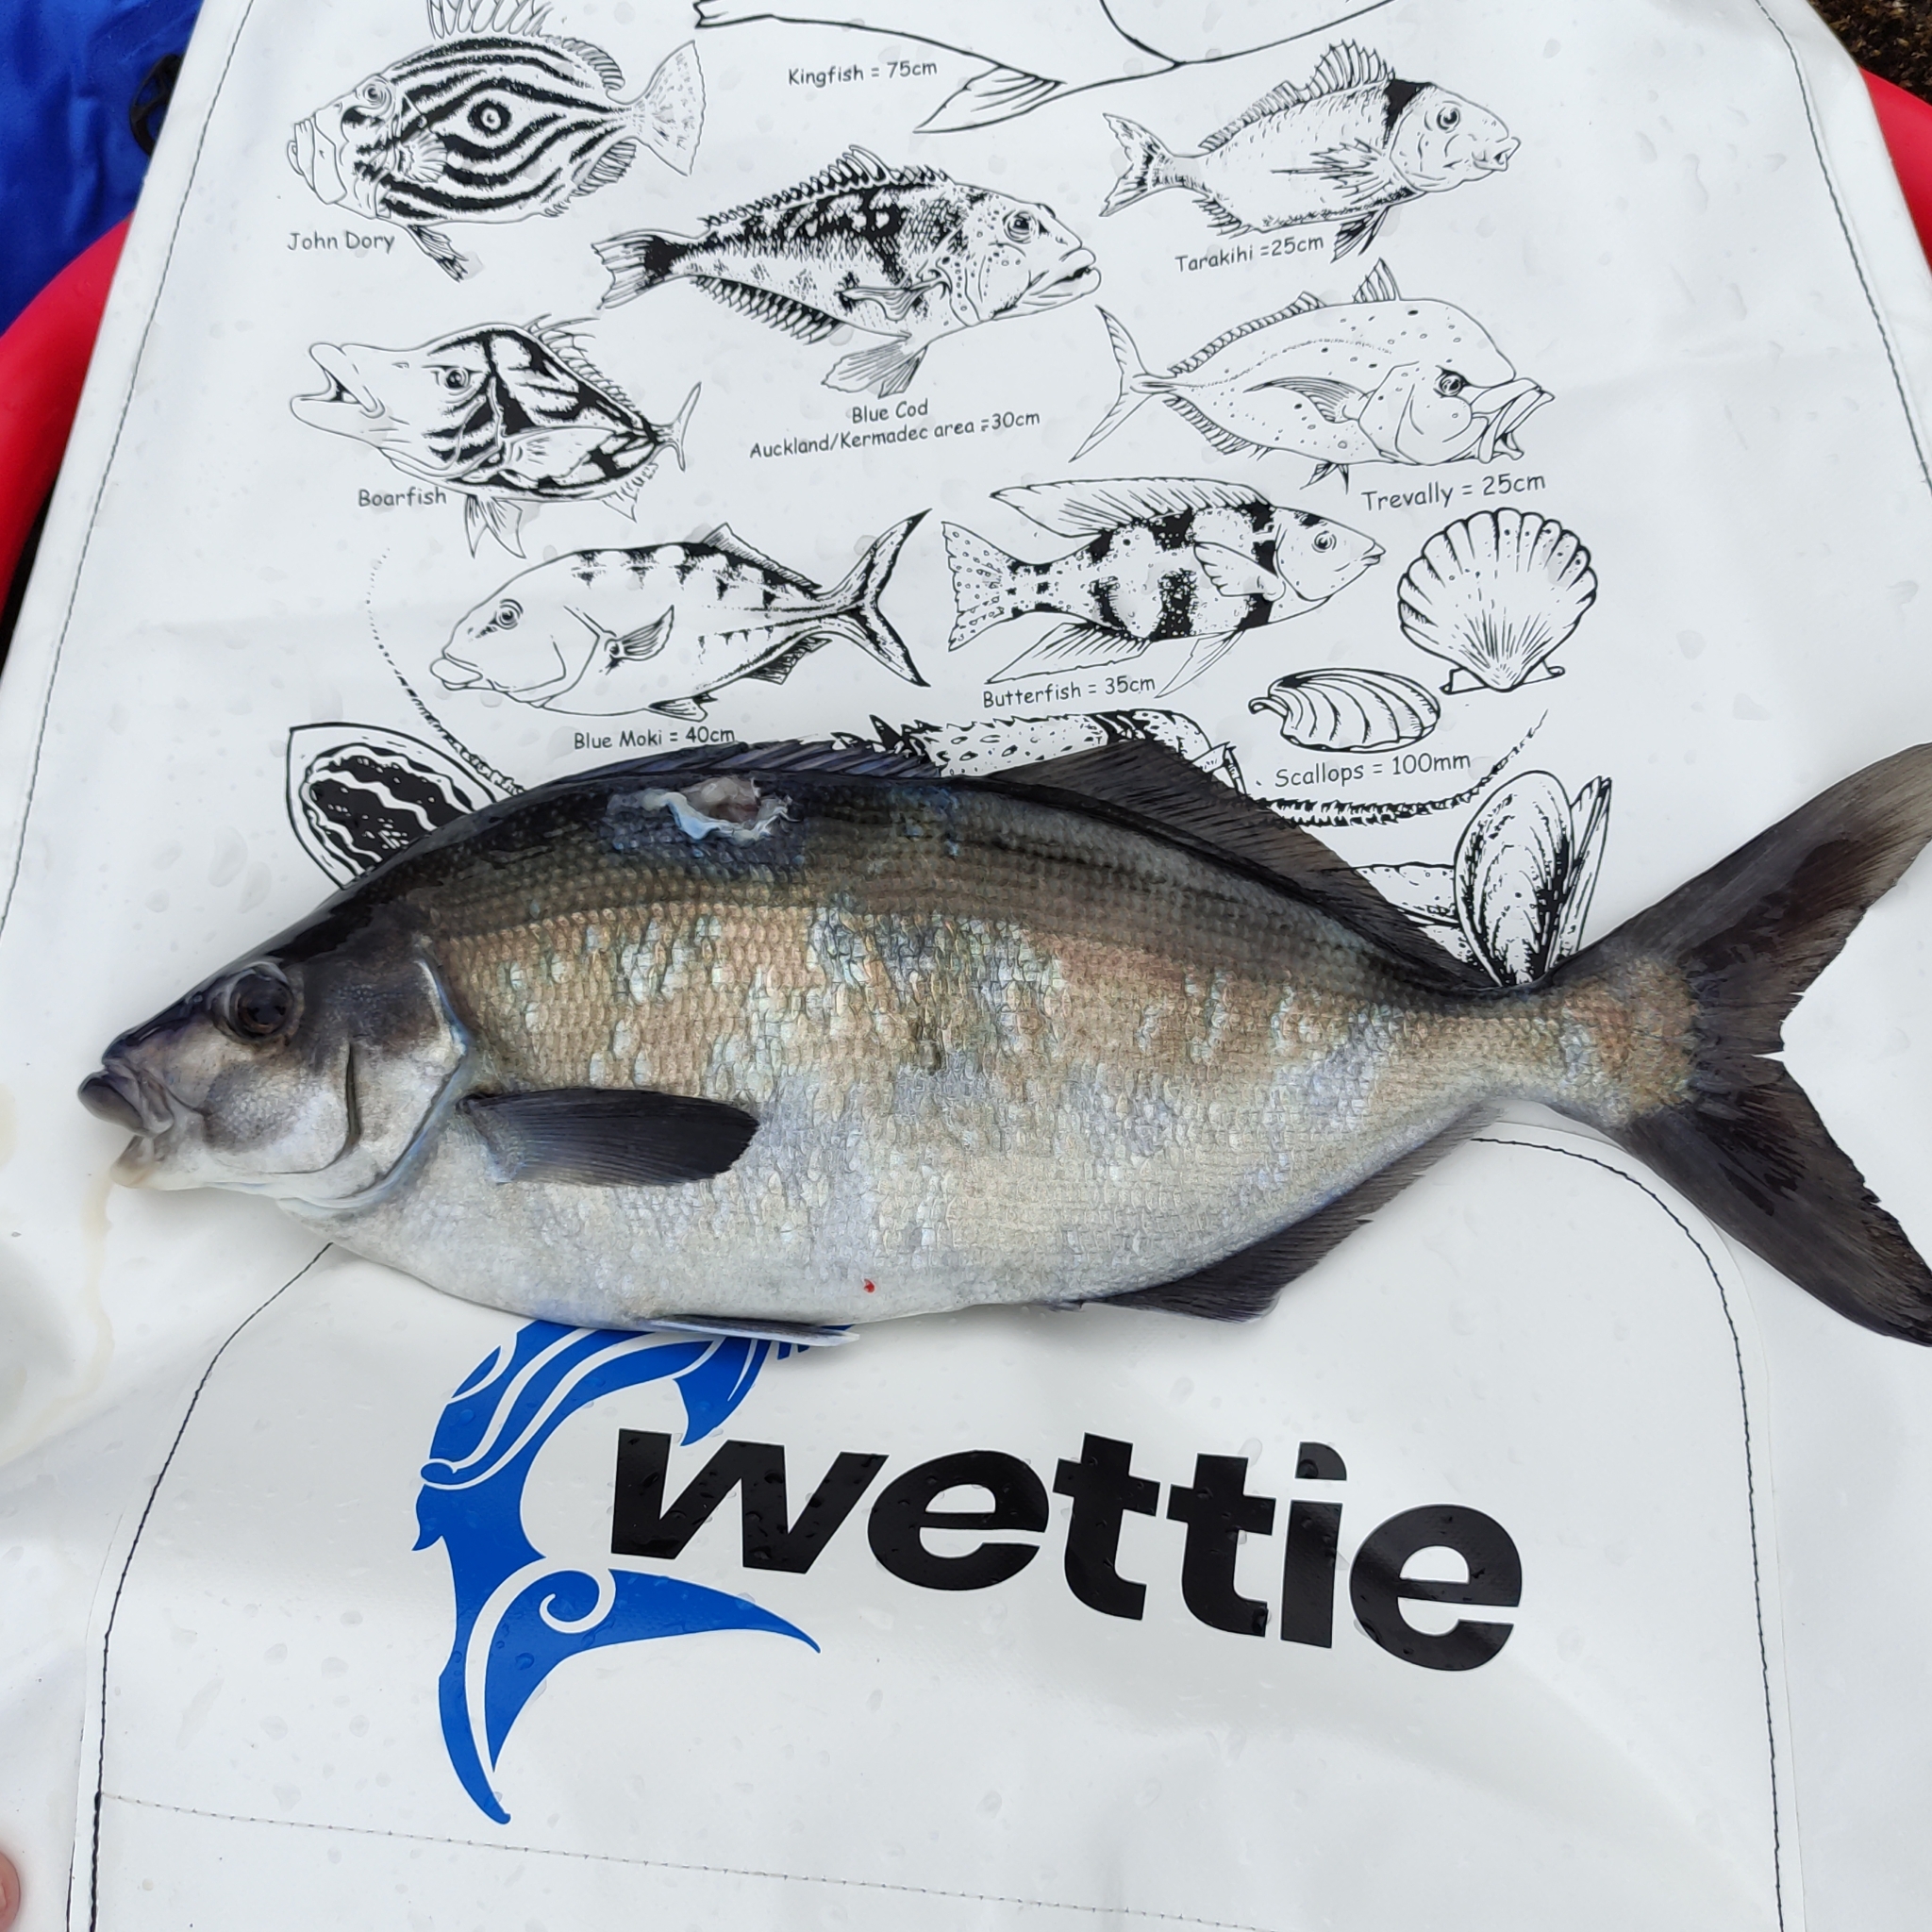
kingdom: Animalia
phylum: Chordata
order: Perciformes
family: Latridae
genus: Latridopsis
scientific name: Latridopsis ciliaris
